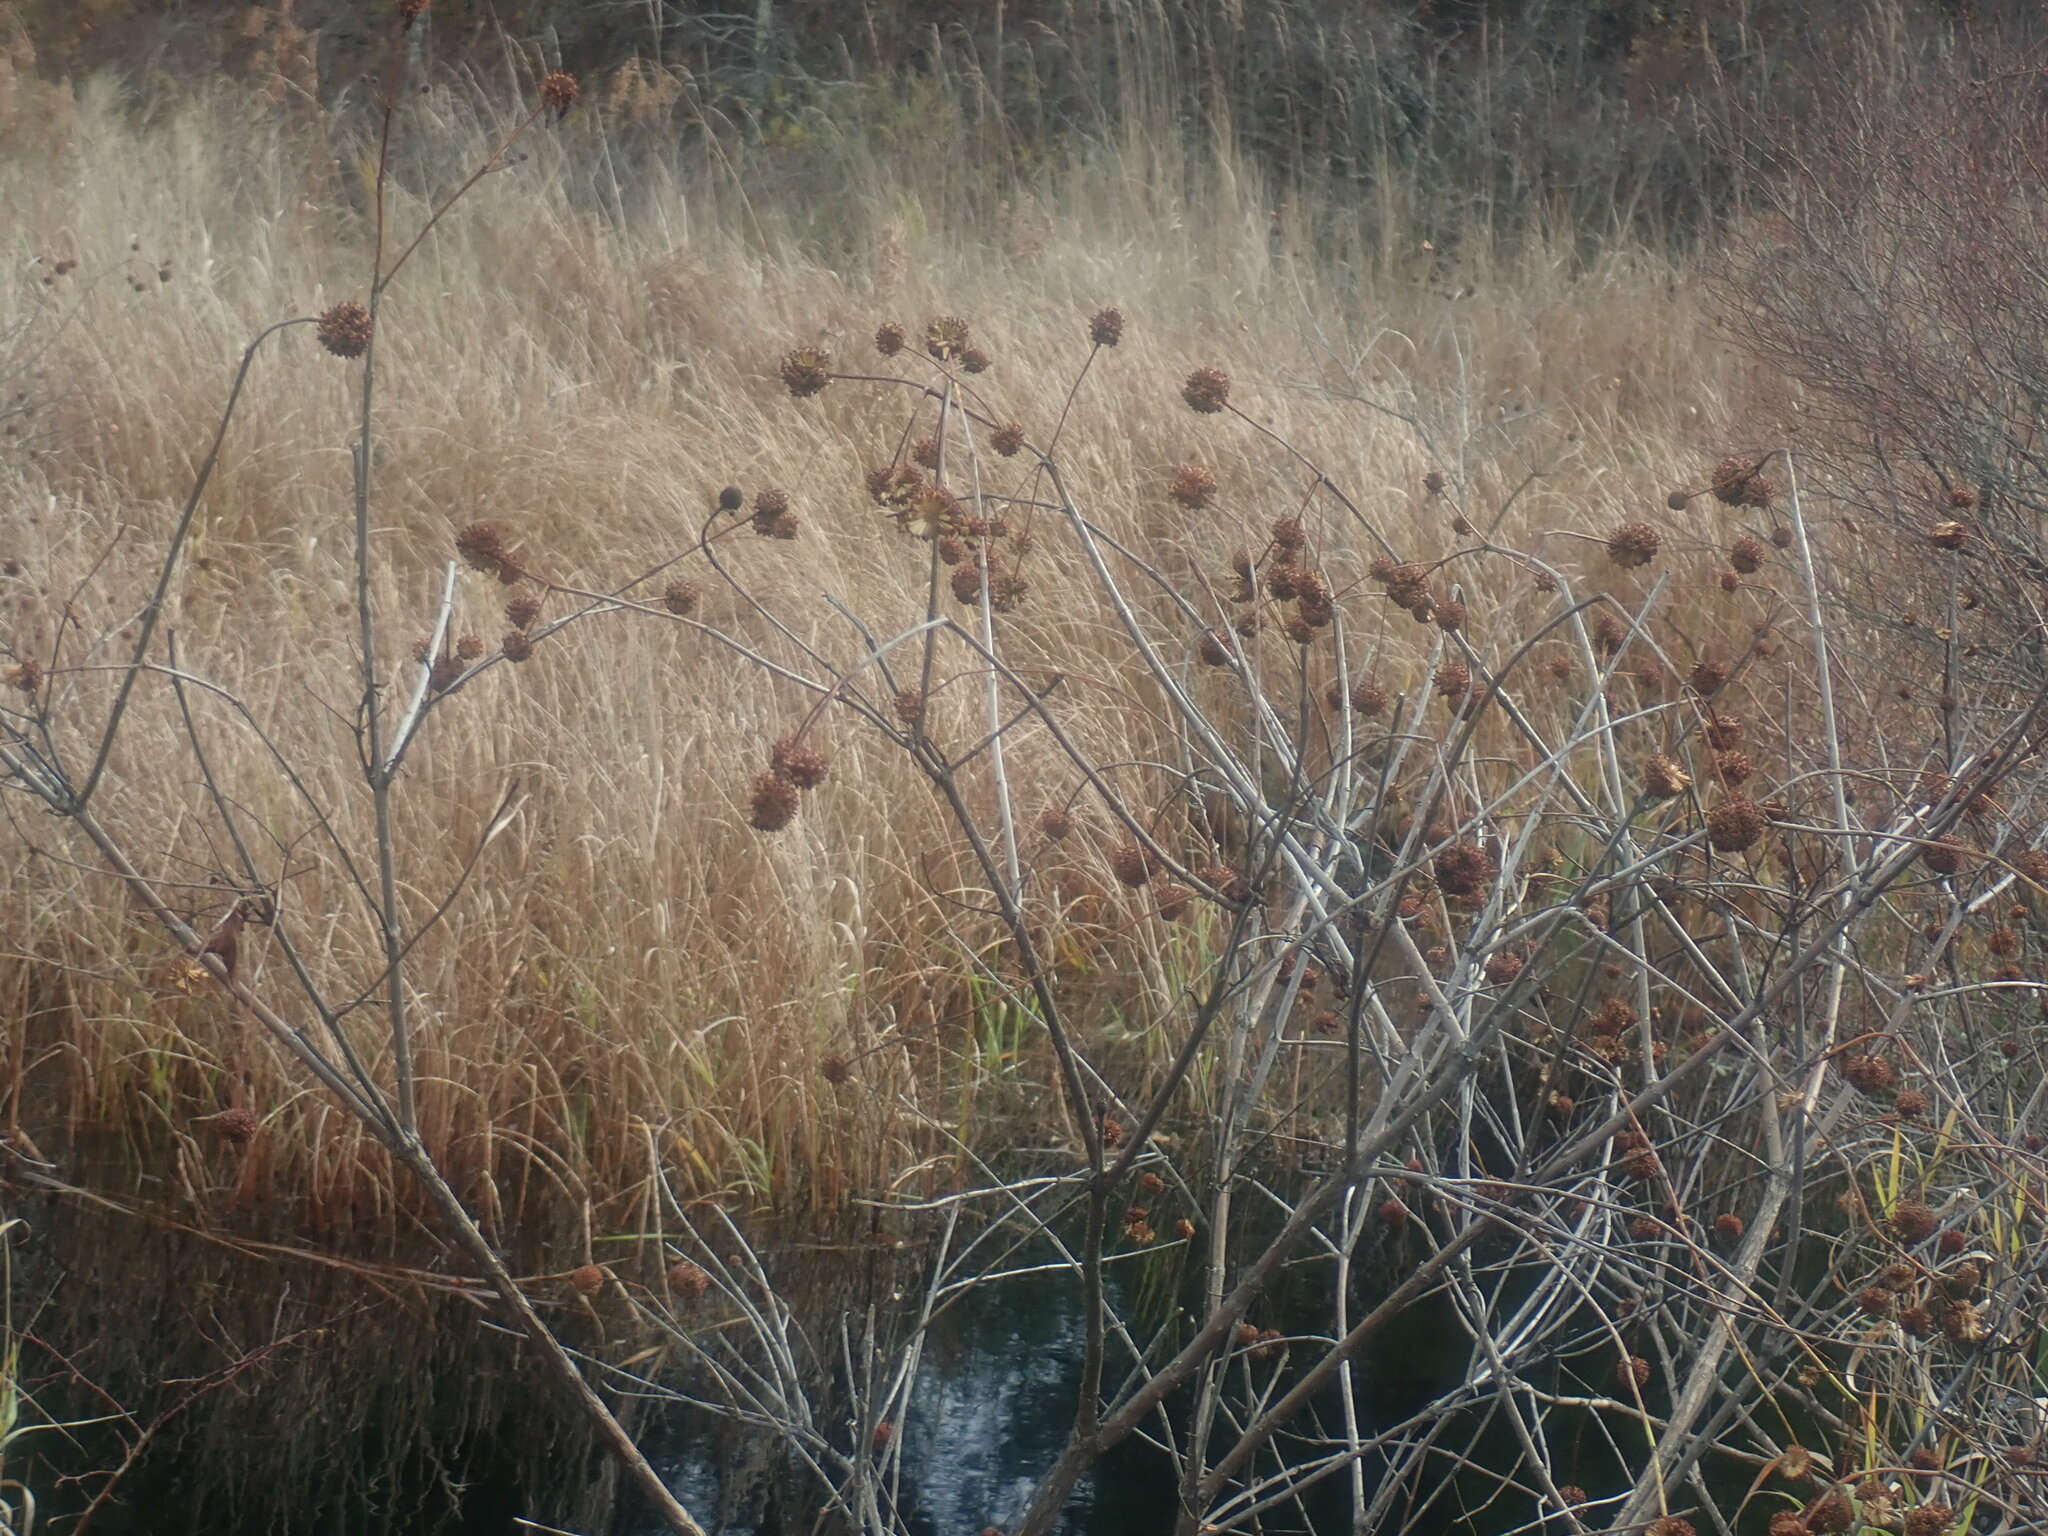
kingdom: Plantae
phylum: Tracheophyta
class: Magnoliopsida
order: Gentianales
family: Rubiaceae
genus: Cephalanthus
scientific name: Cephalanthus occidentalis
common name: Button-willow
